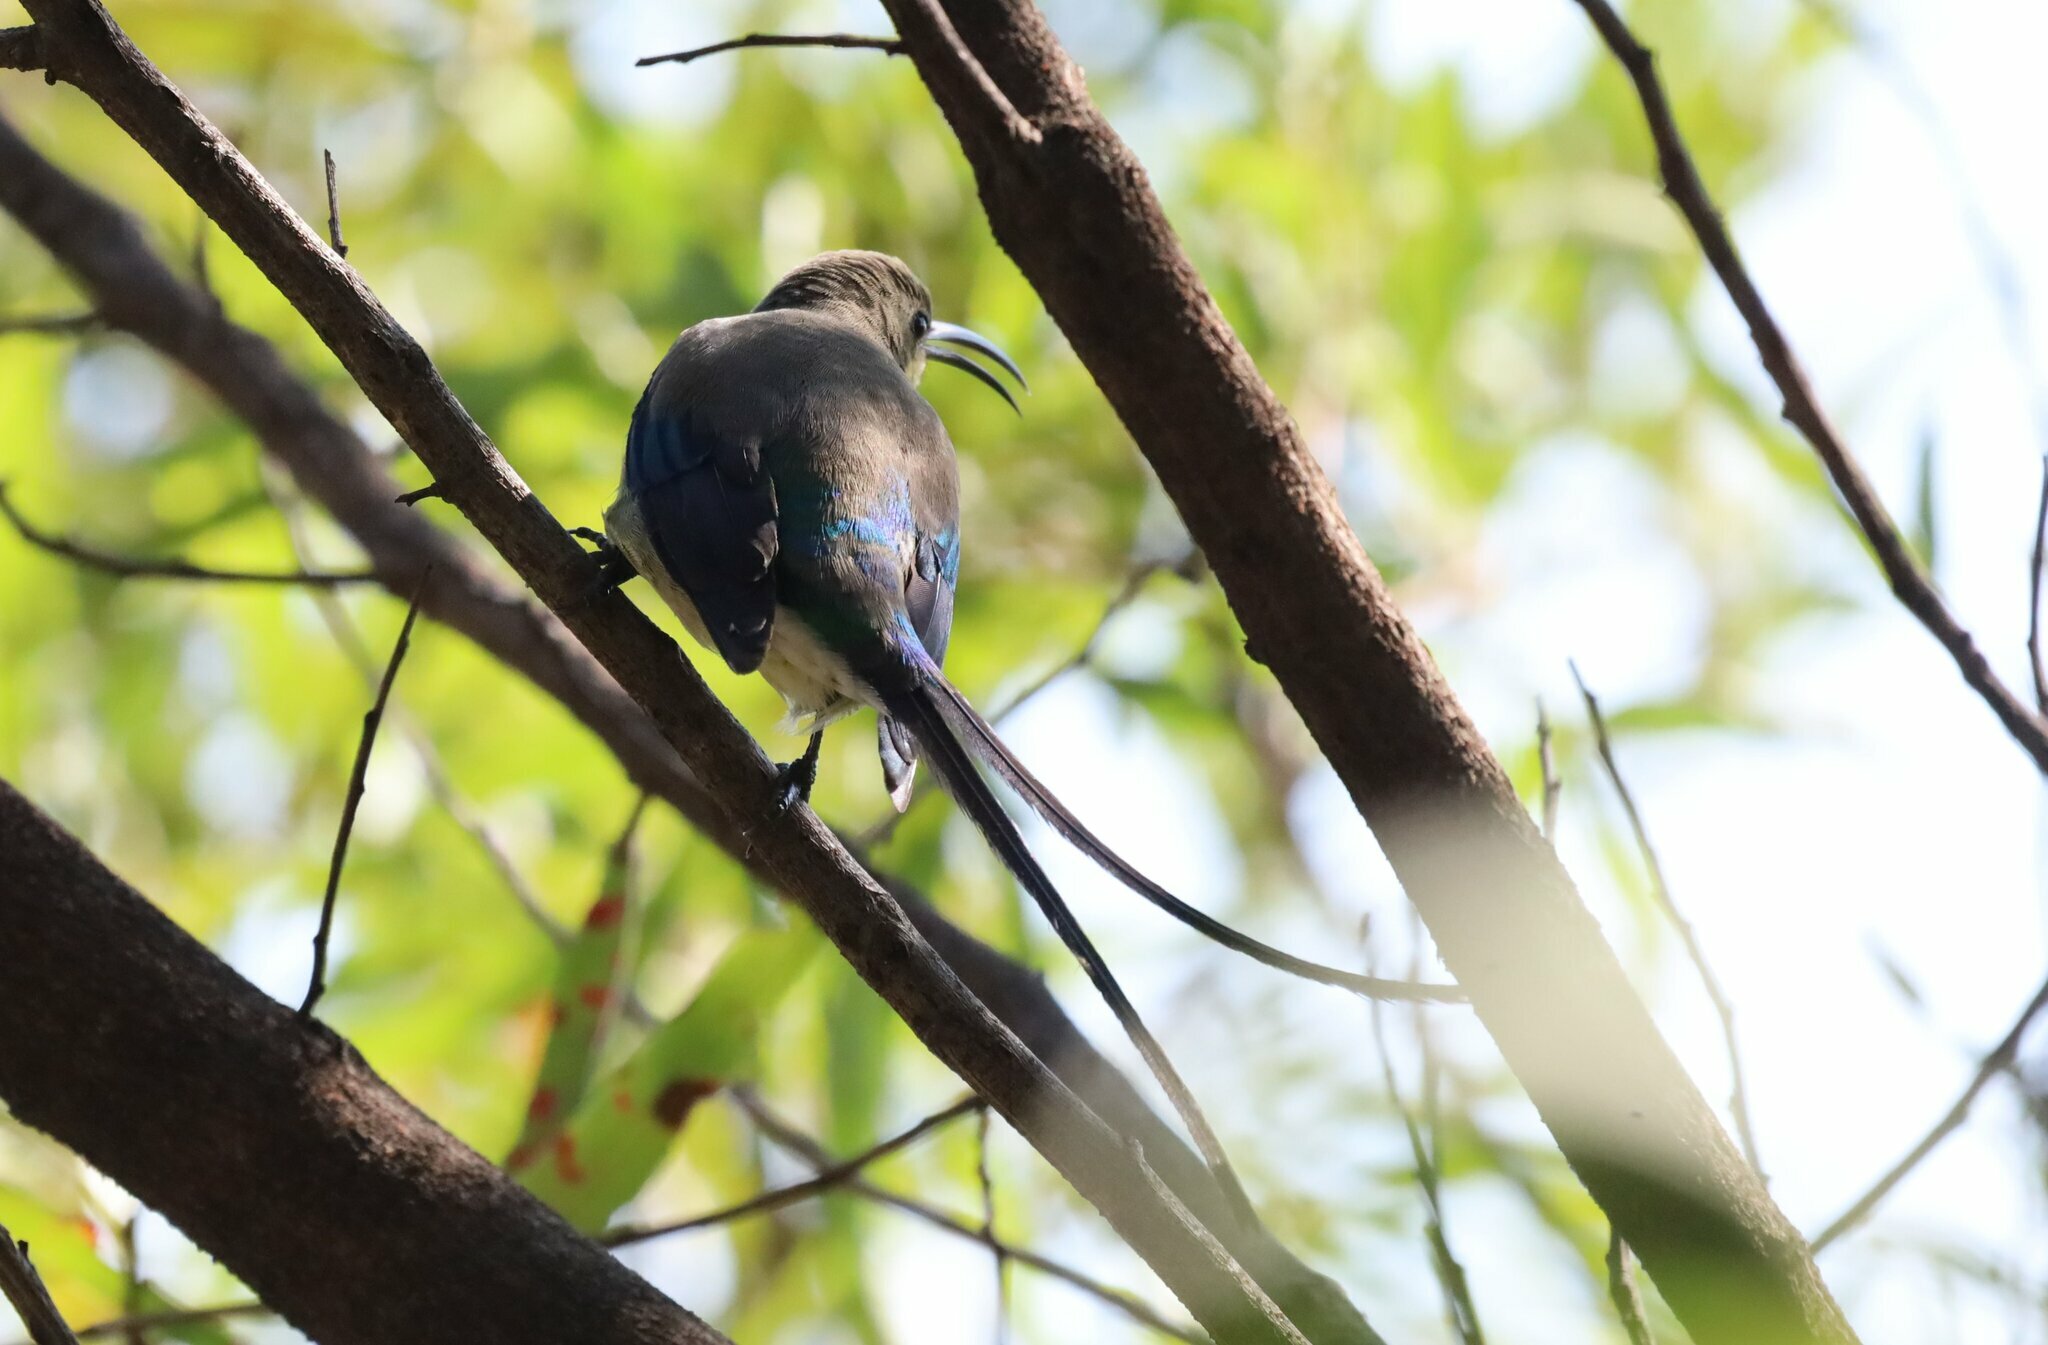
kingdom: Animalia
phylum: Chordata
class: Aves
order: Passeriformes
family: Nectariniidae
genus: Nectarinia
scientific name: Nectarinia famosa
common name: Malachite sunbird
